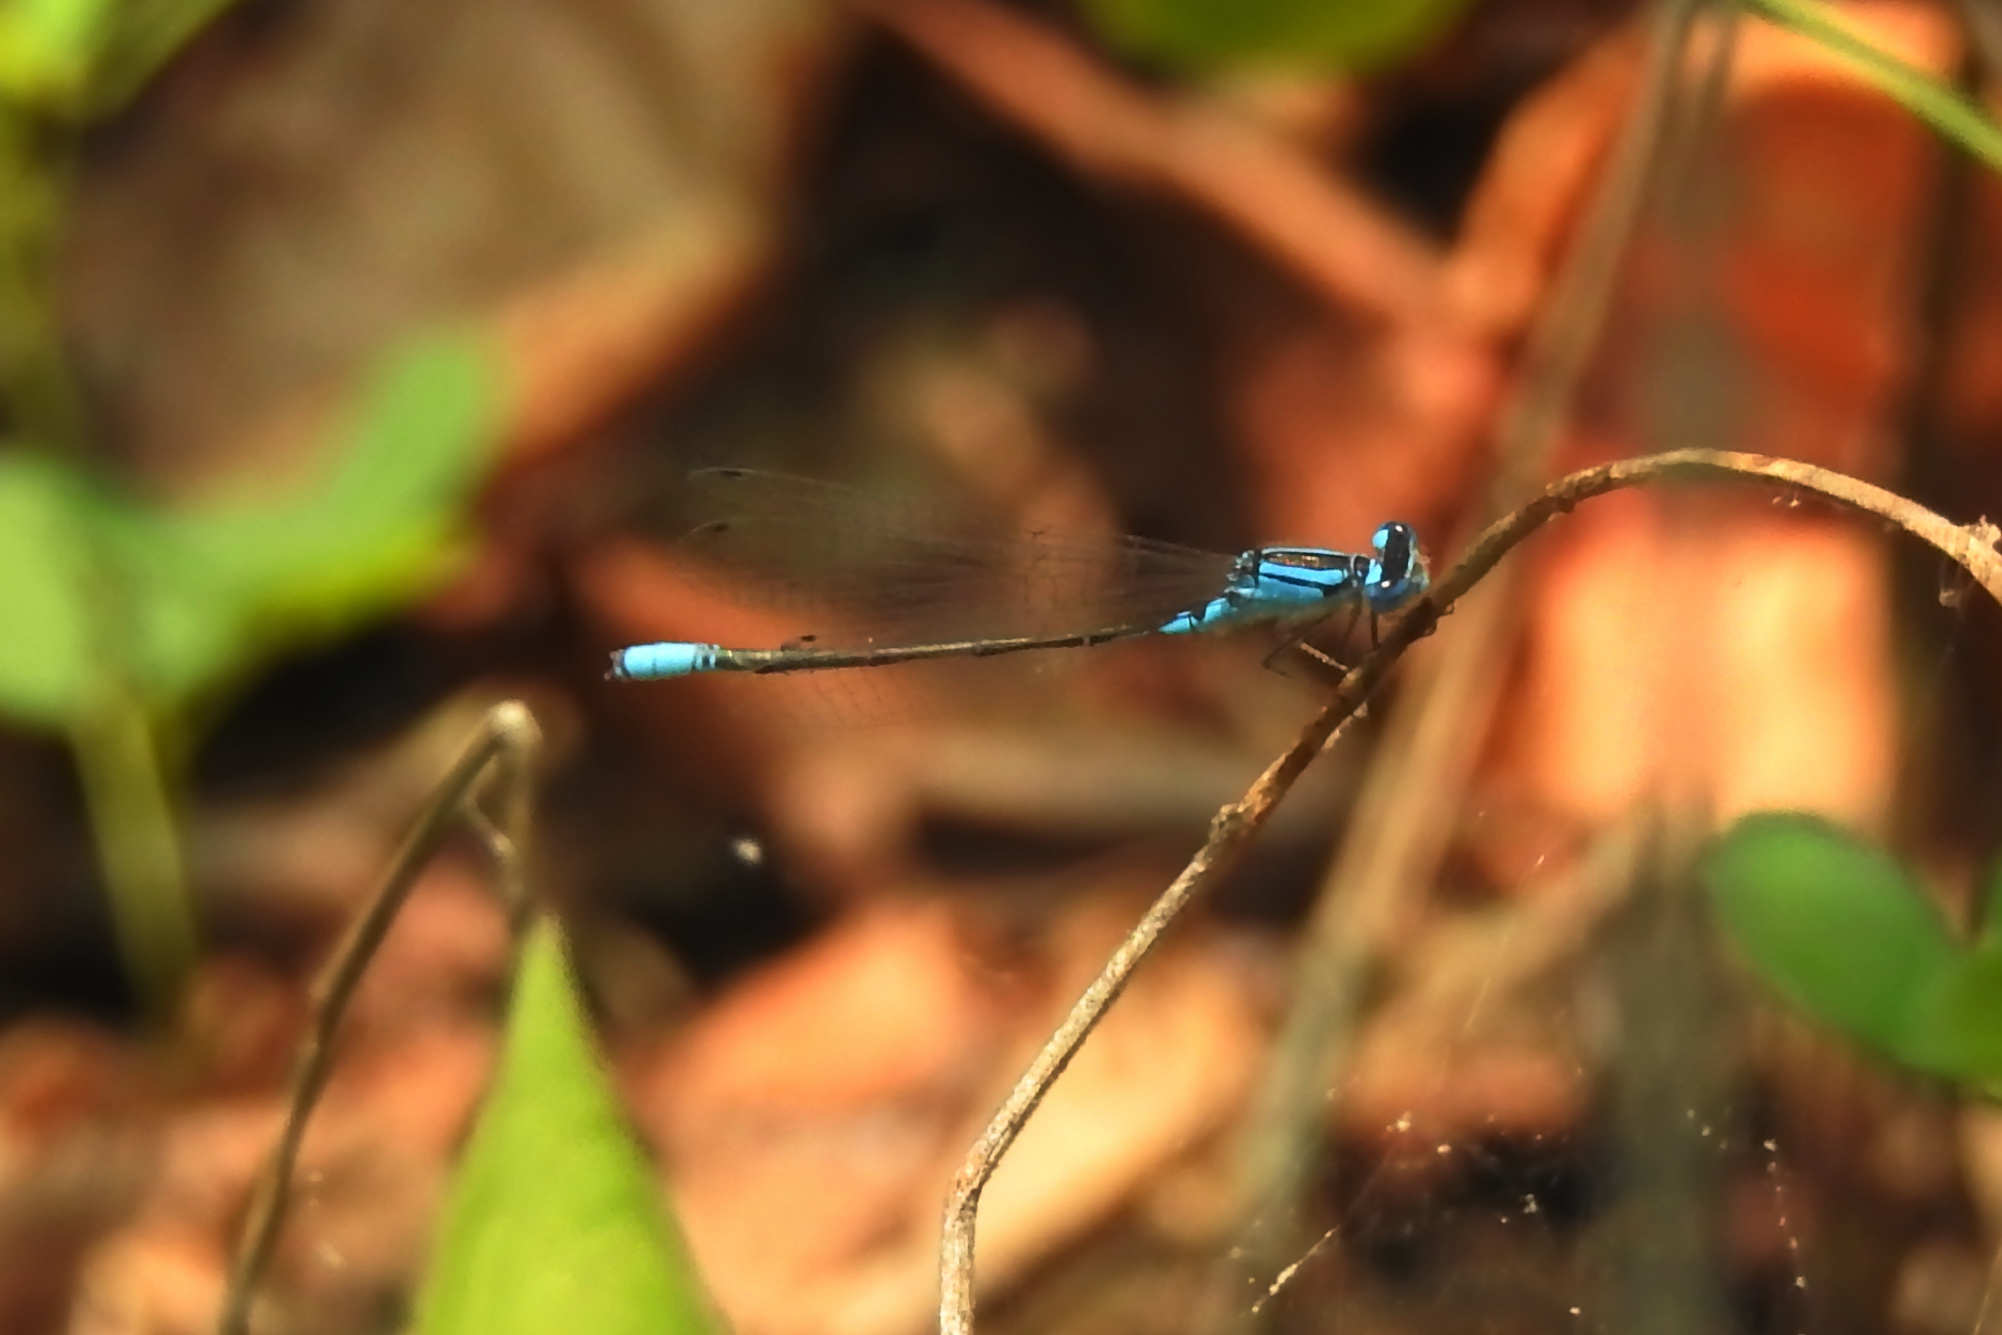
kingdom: Animalia
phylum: Arthropoda
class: Insecta
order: Odonata
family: Coenagrionidae
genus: Enallagma
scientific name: Enallagma aspersum
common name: Azure bluet
